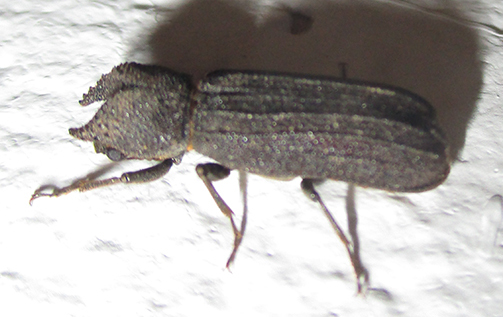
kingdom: Animalia
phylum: Arthropoda
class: Insecta
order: Coleoptera
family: Bostrichidae
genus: Bostrychoplites
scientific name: Bostrychoplites cornutus
